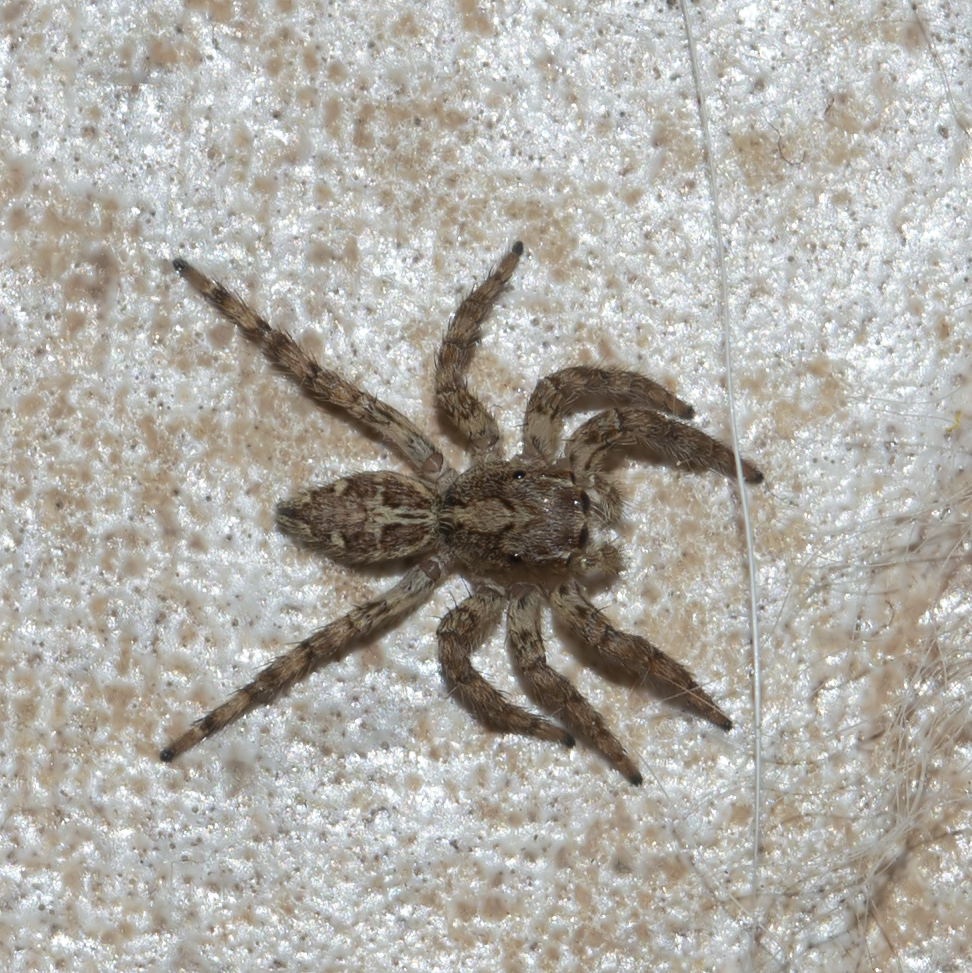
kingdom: Animalia
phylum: Arthropoda
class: Arachnida
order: Araneae
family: Salticidae
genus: Plexippus
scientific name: Plexippus paykulli
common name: Pantropical jumper
